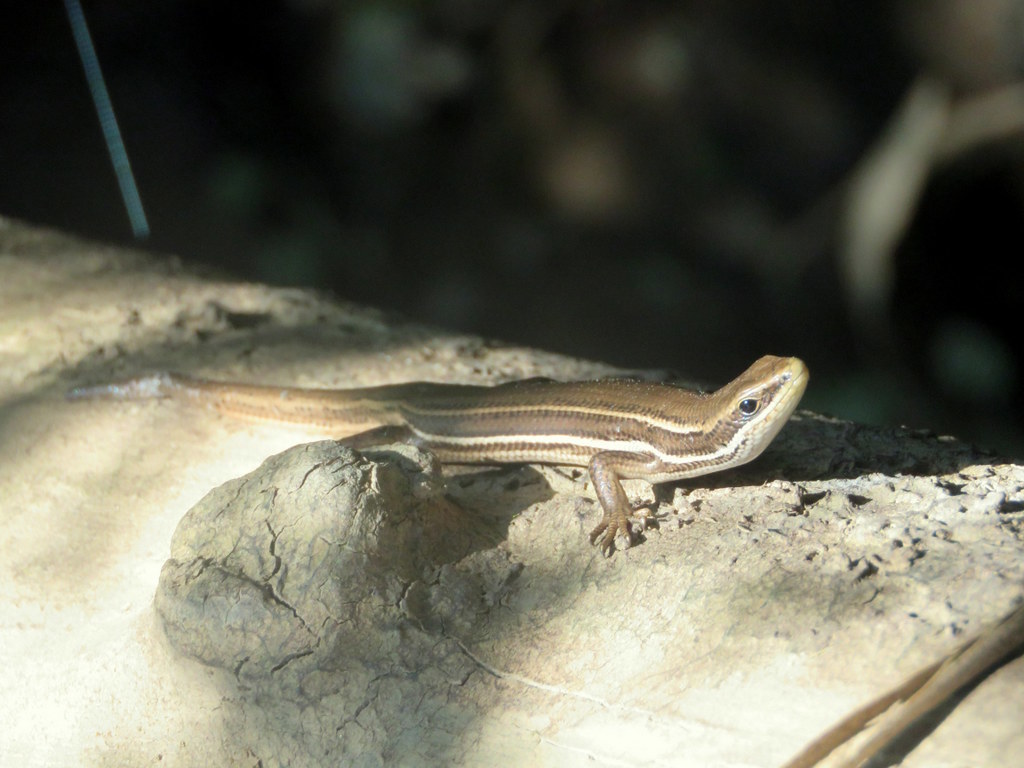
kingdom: Animalia
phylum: Chordata
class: Squamata
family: Scincidae
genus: Aspronema
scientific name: Aspronema dorsivittatum
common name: Paraguay mabuya
